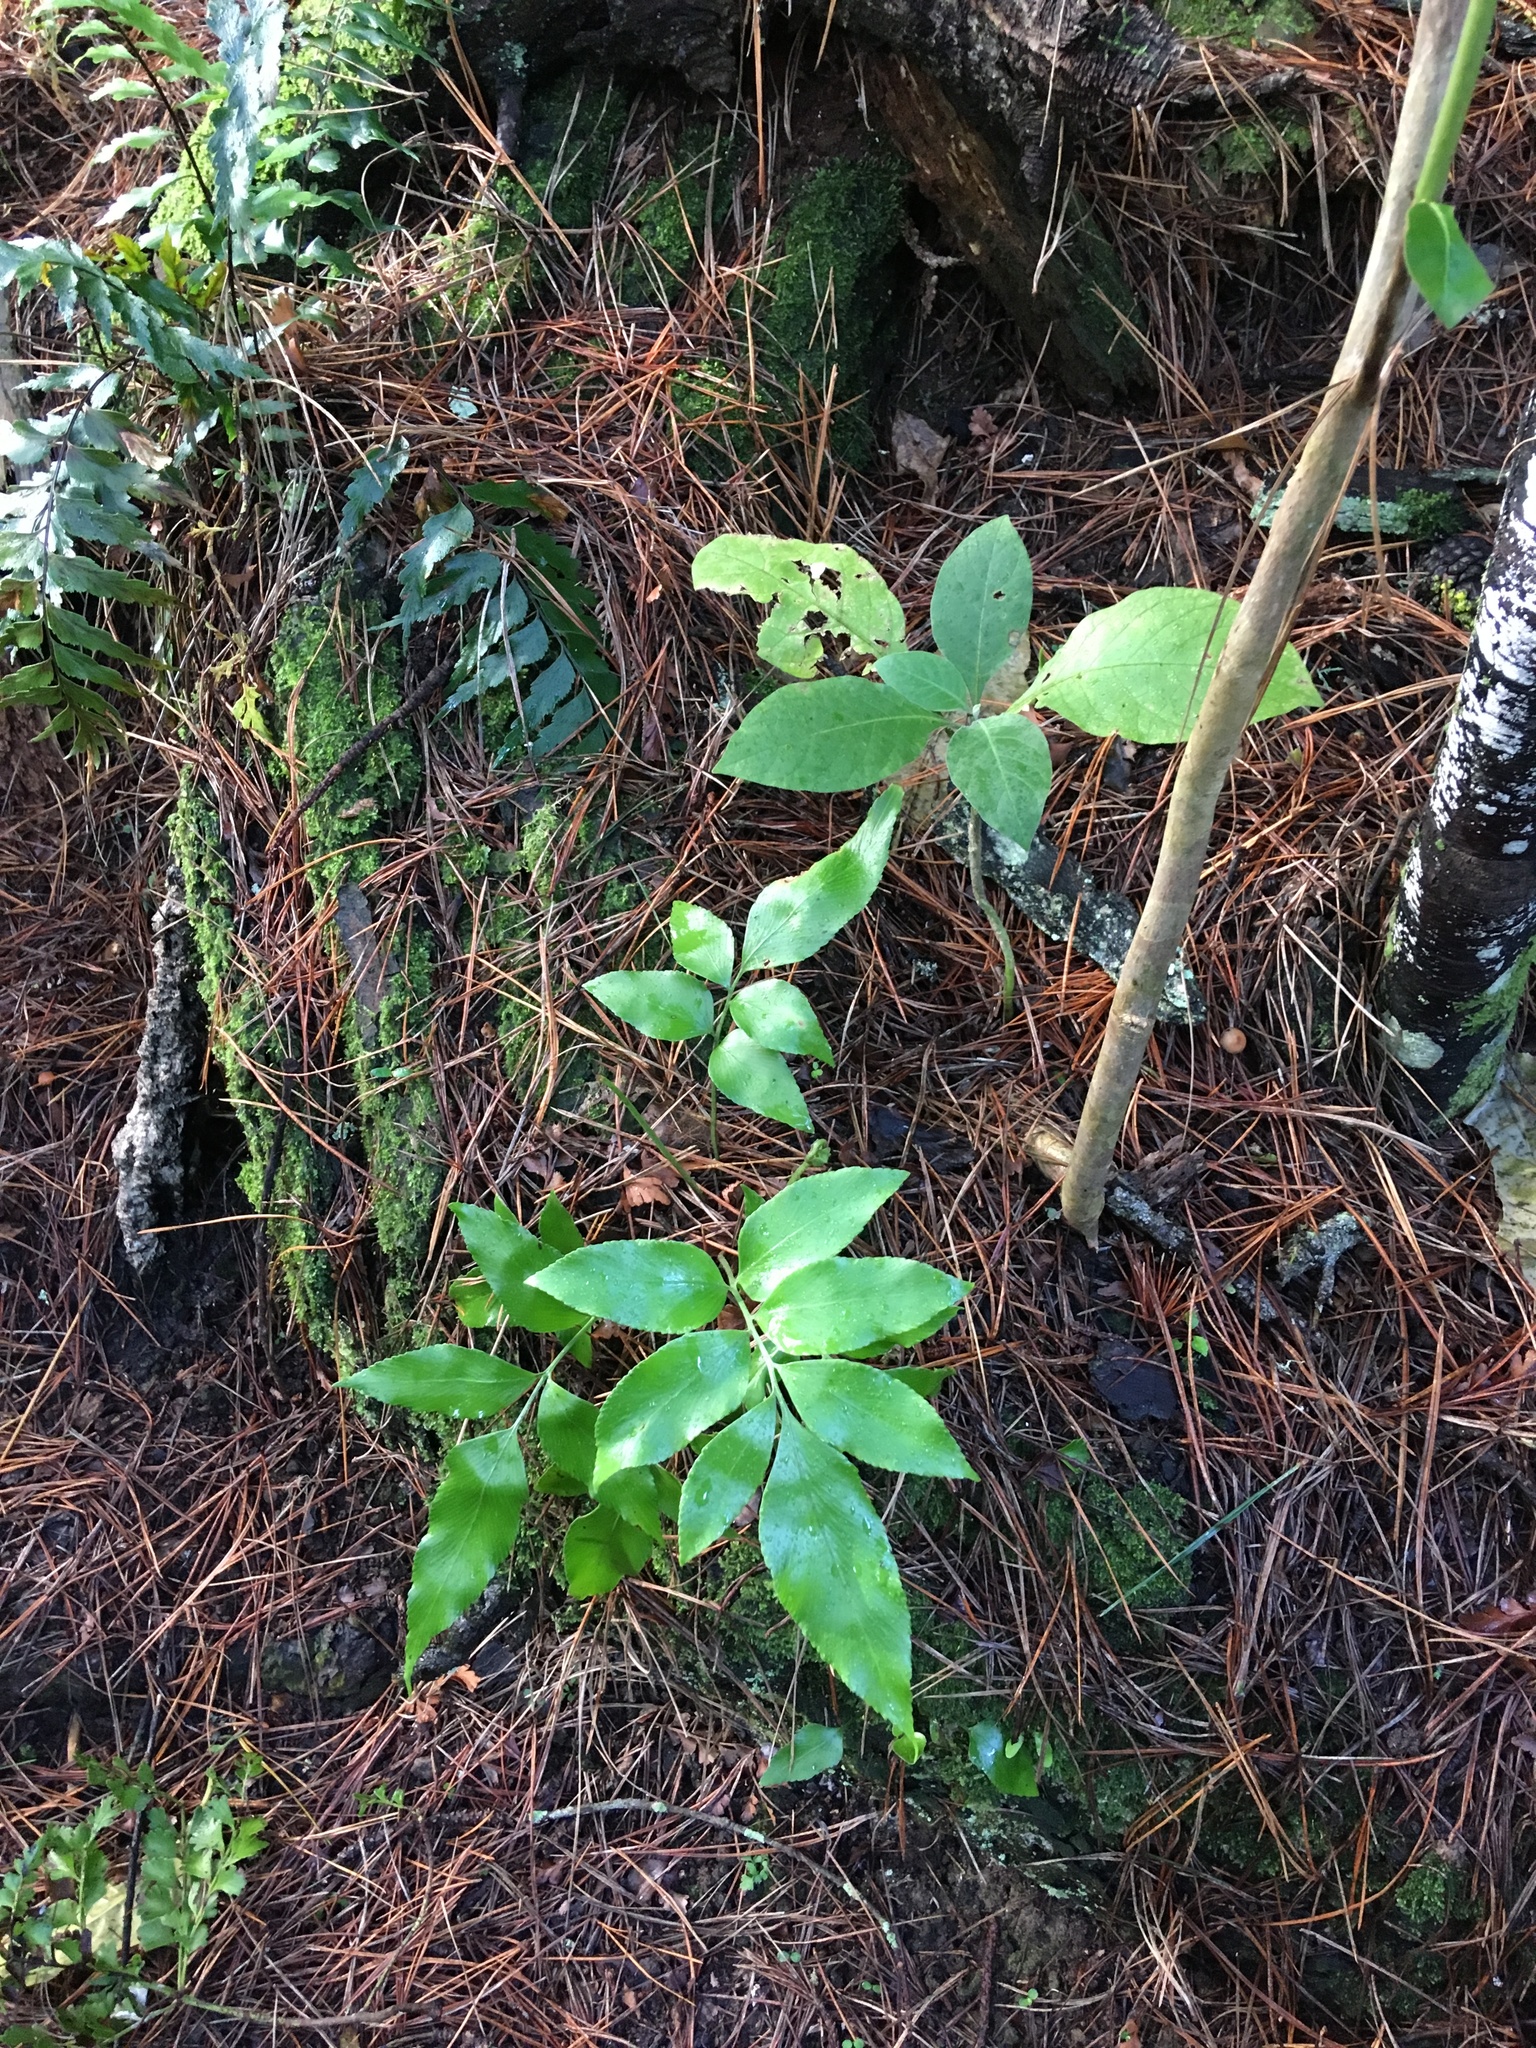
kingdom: Plantae
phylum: Tracheophyta
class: Polypodiopsida
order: Polypodiales
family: Aspleniaceae
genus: Asplenium
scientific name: Asplenium oblongifolium
